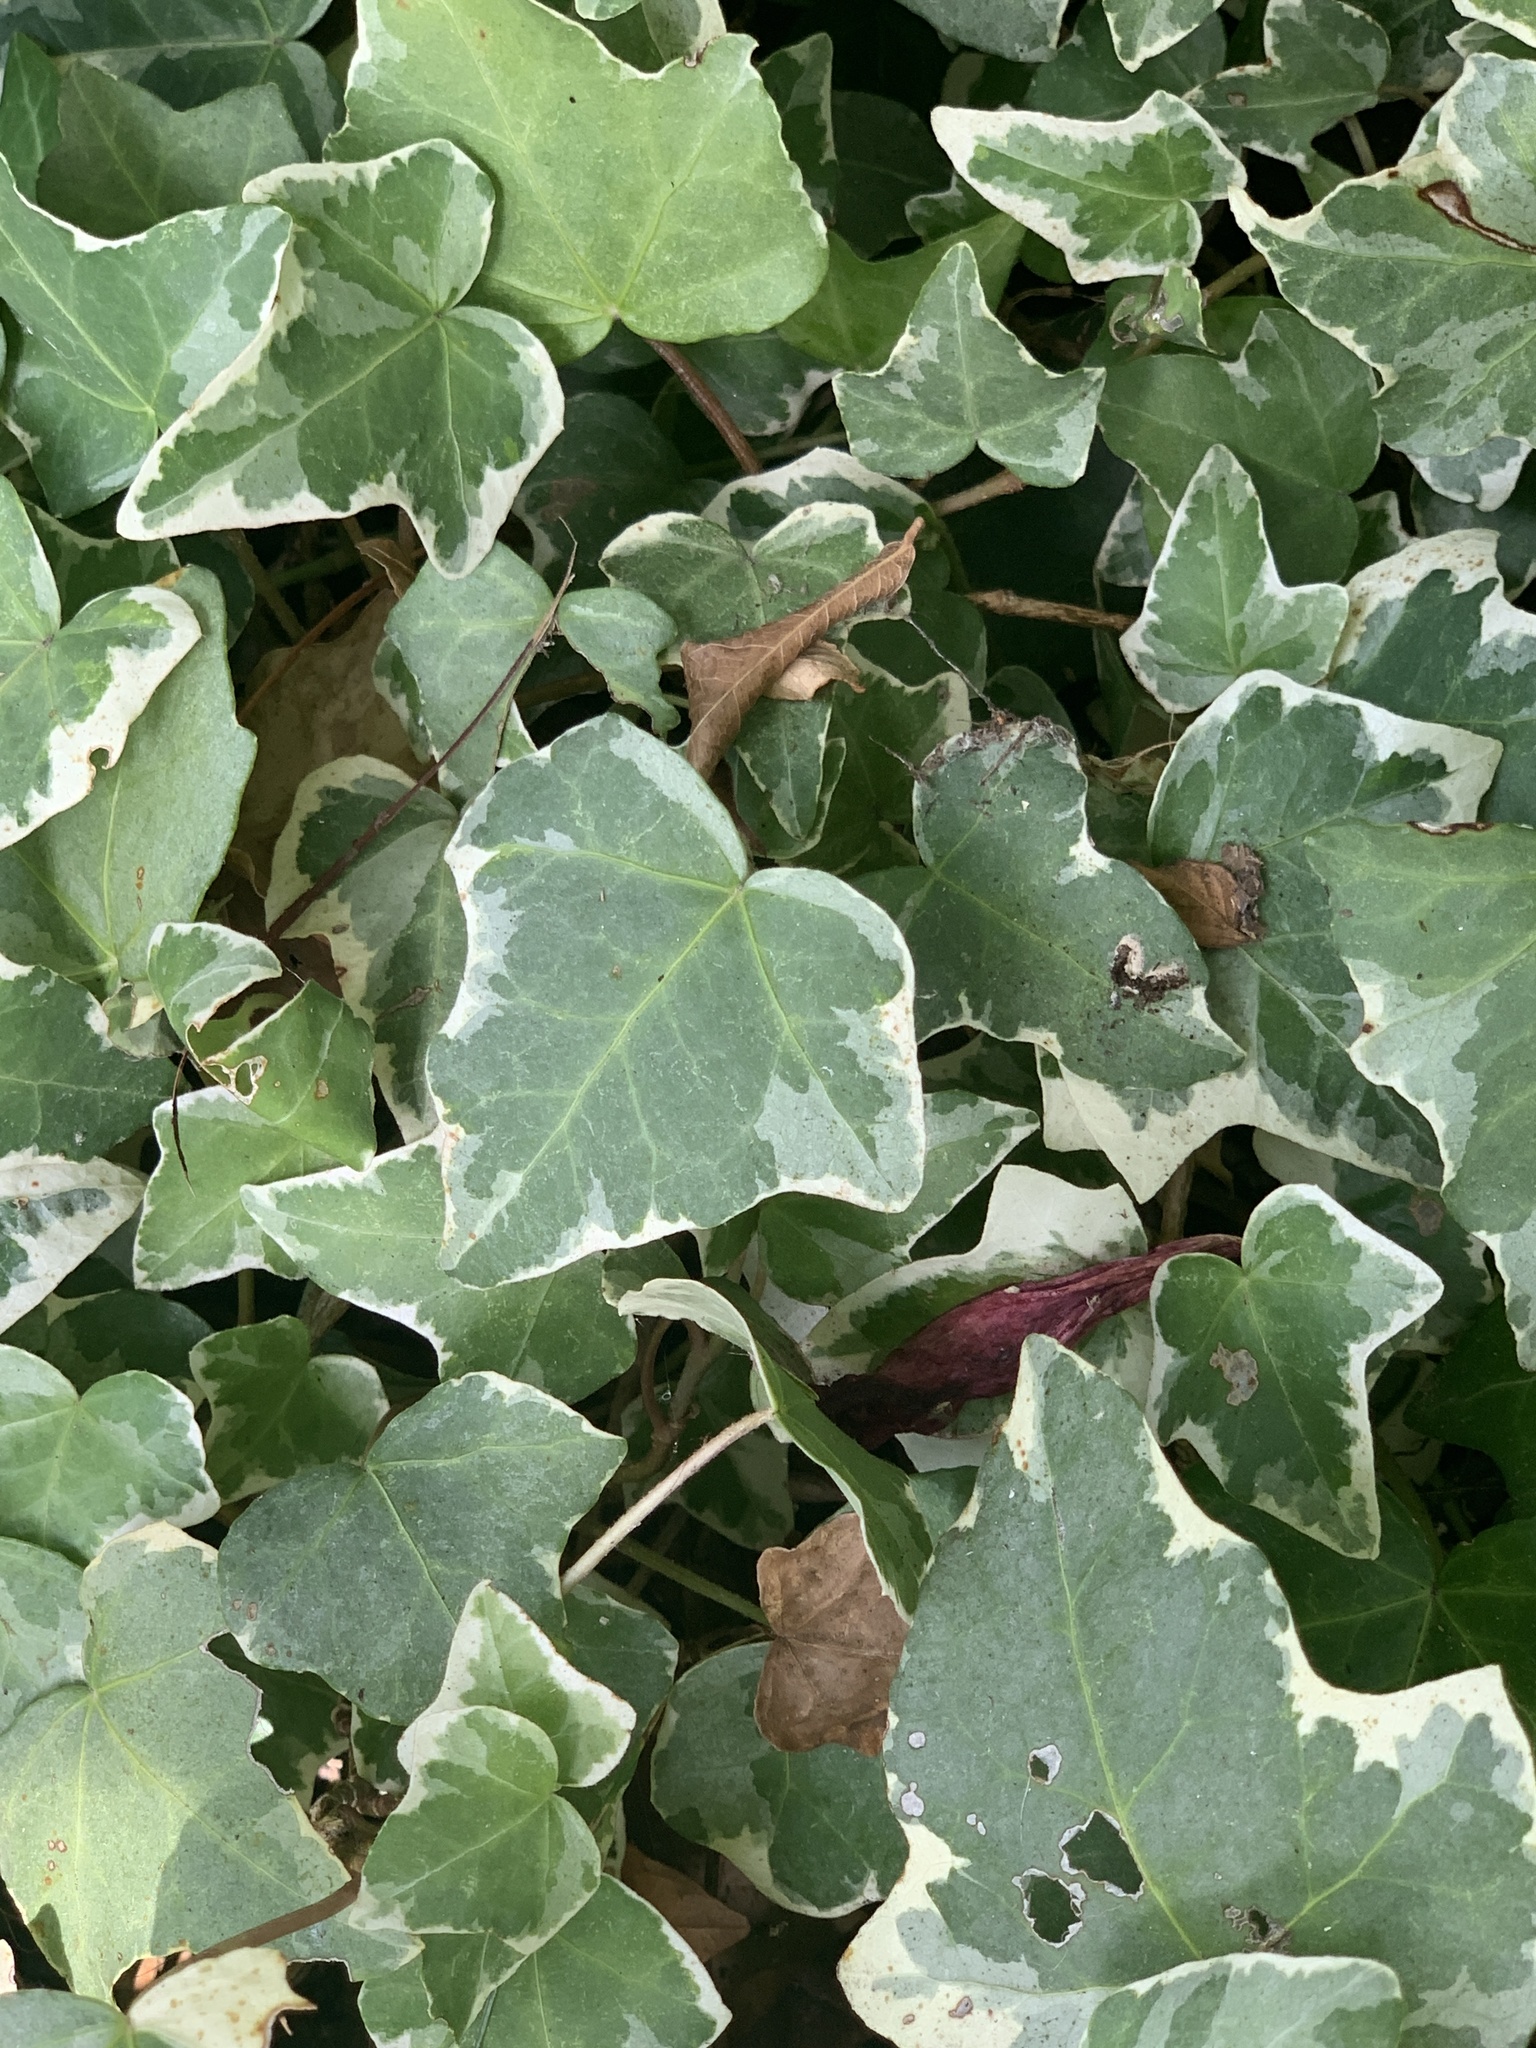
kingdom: Plantae
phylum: Tracheophyta
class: Magnoliopsida
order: Apiales
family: Araliaceae
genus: Hedera
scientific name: Hedera helix
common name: Ivy
